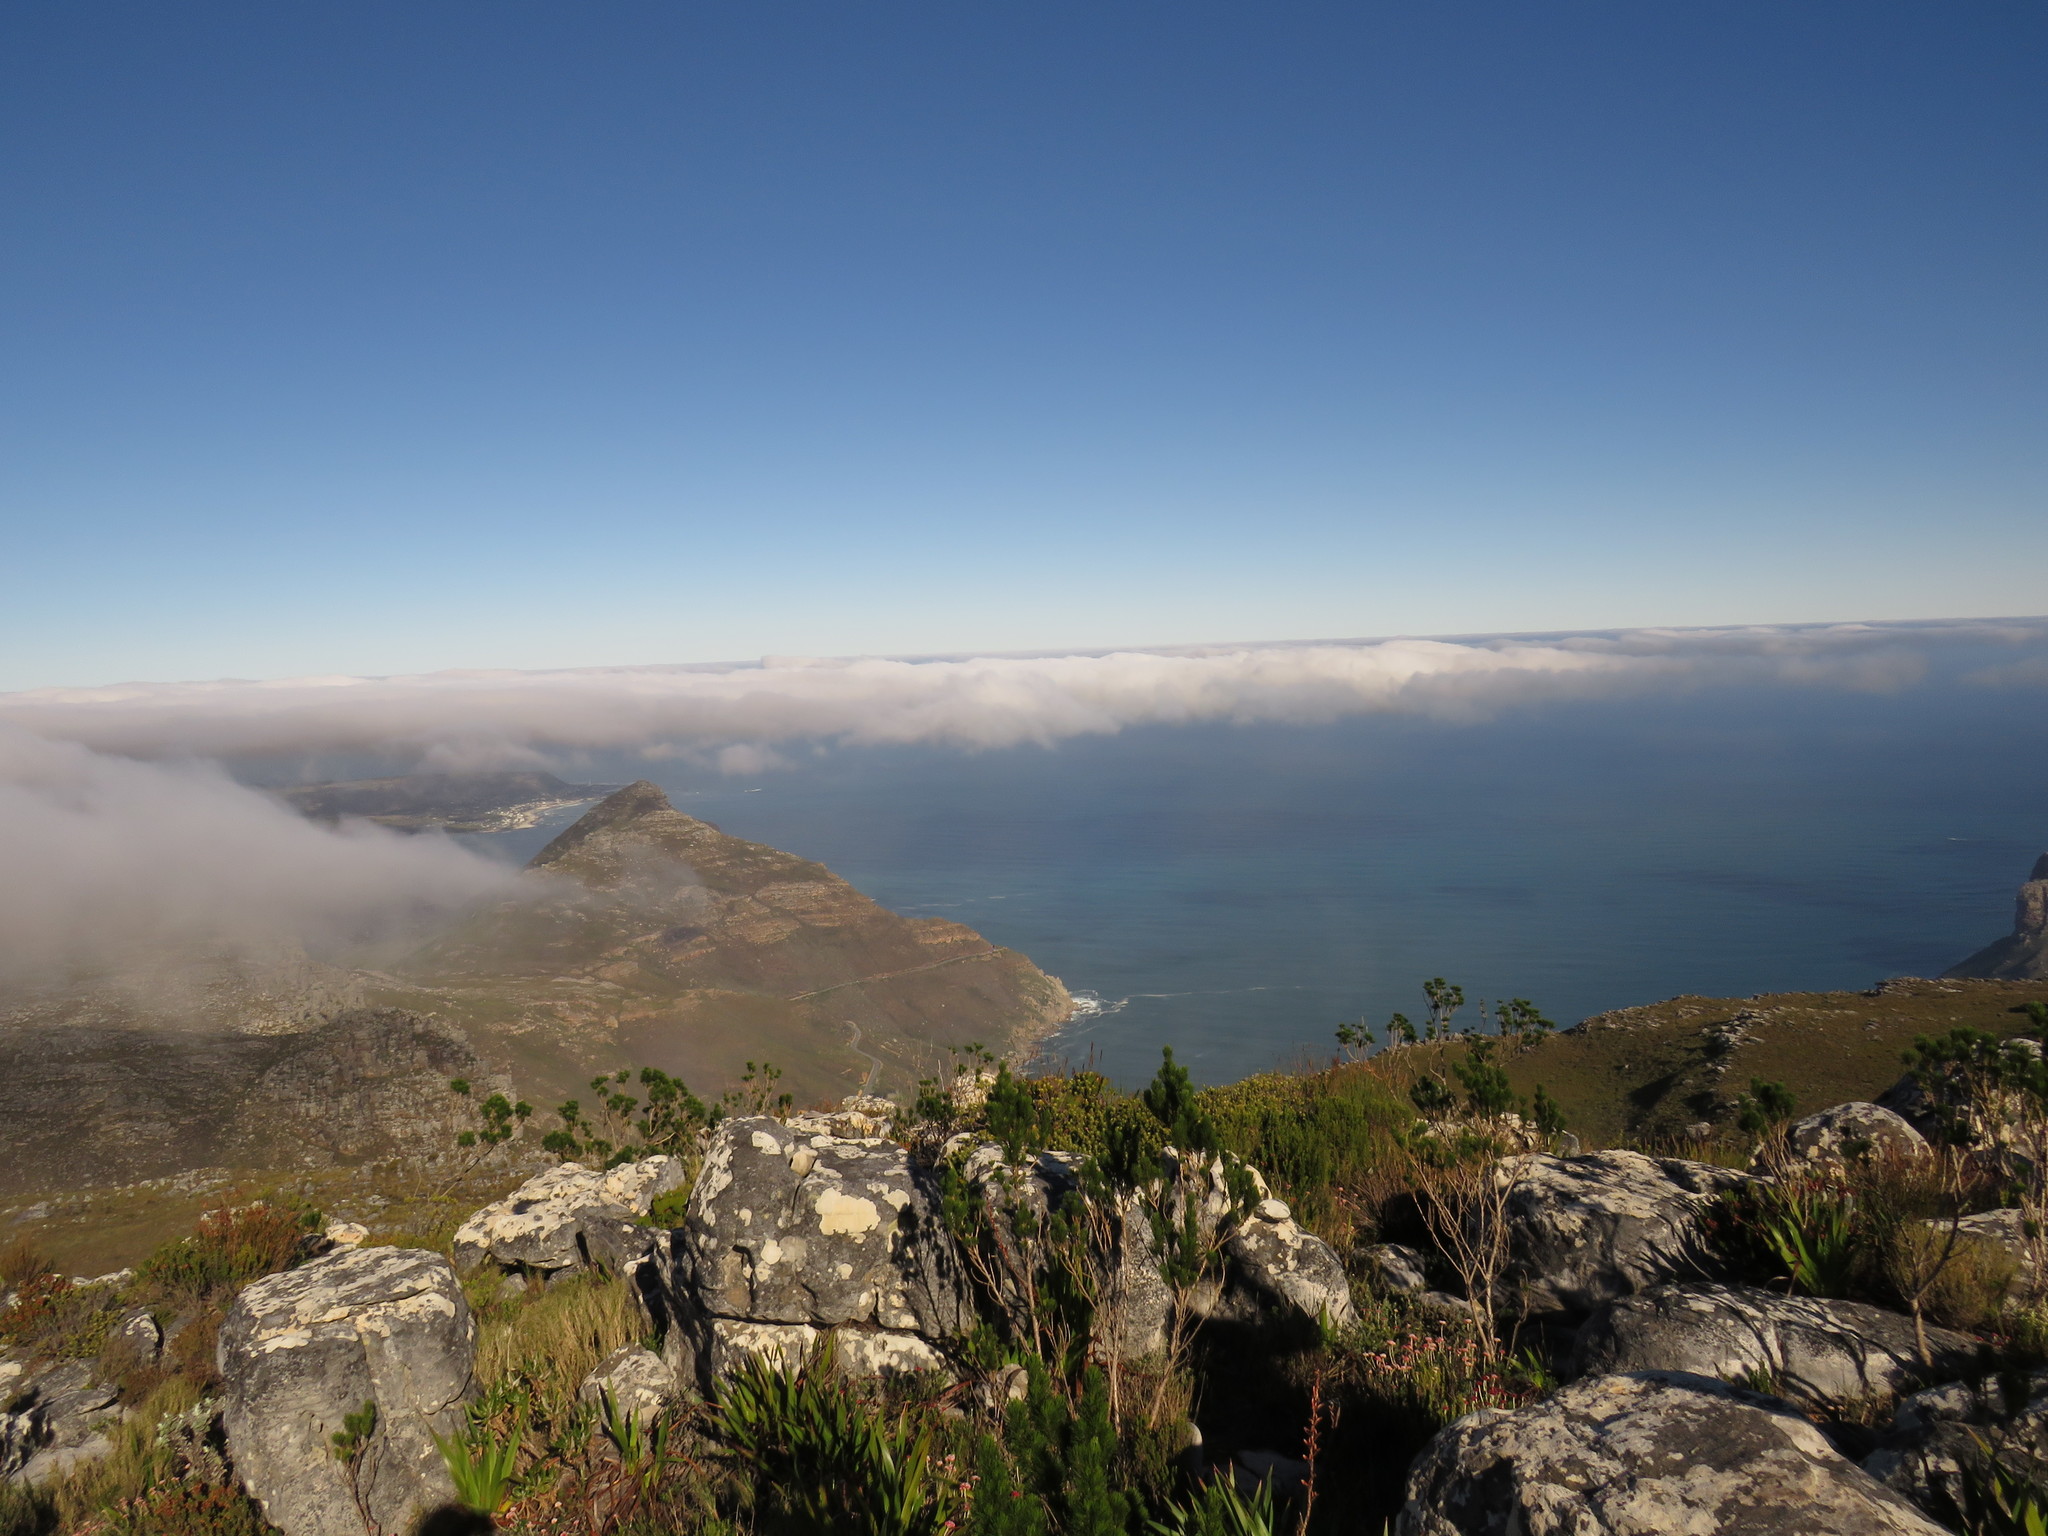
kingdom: Plantae
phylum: Tracheophyta
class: Magnoliopsida
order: Fabales
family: Fabaceae
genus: Psoralea
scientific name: Psoralea pinnata
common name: African scurfpea
